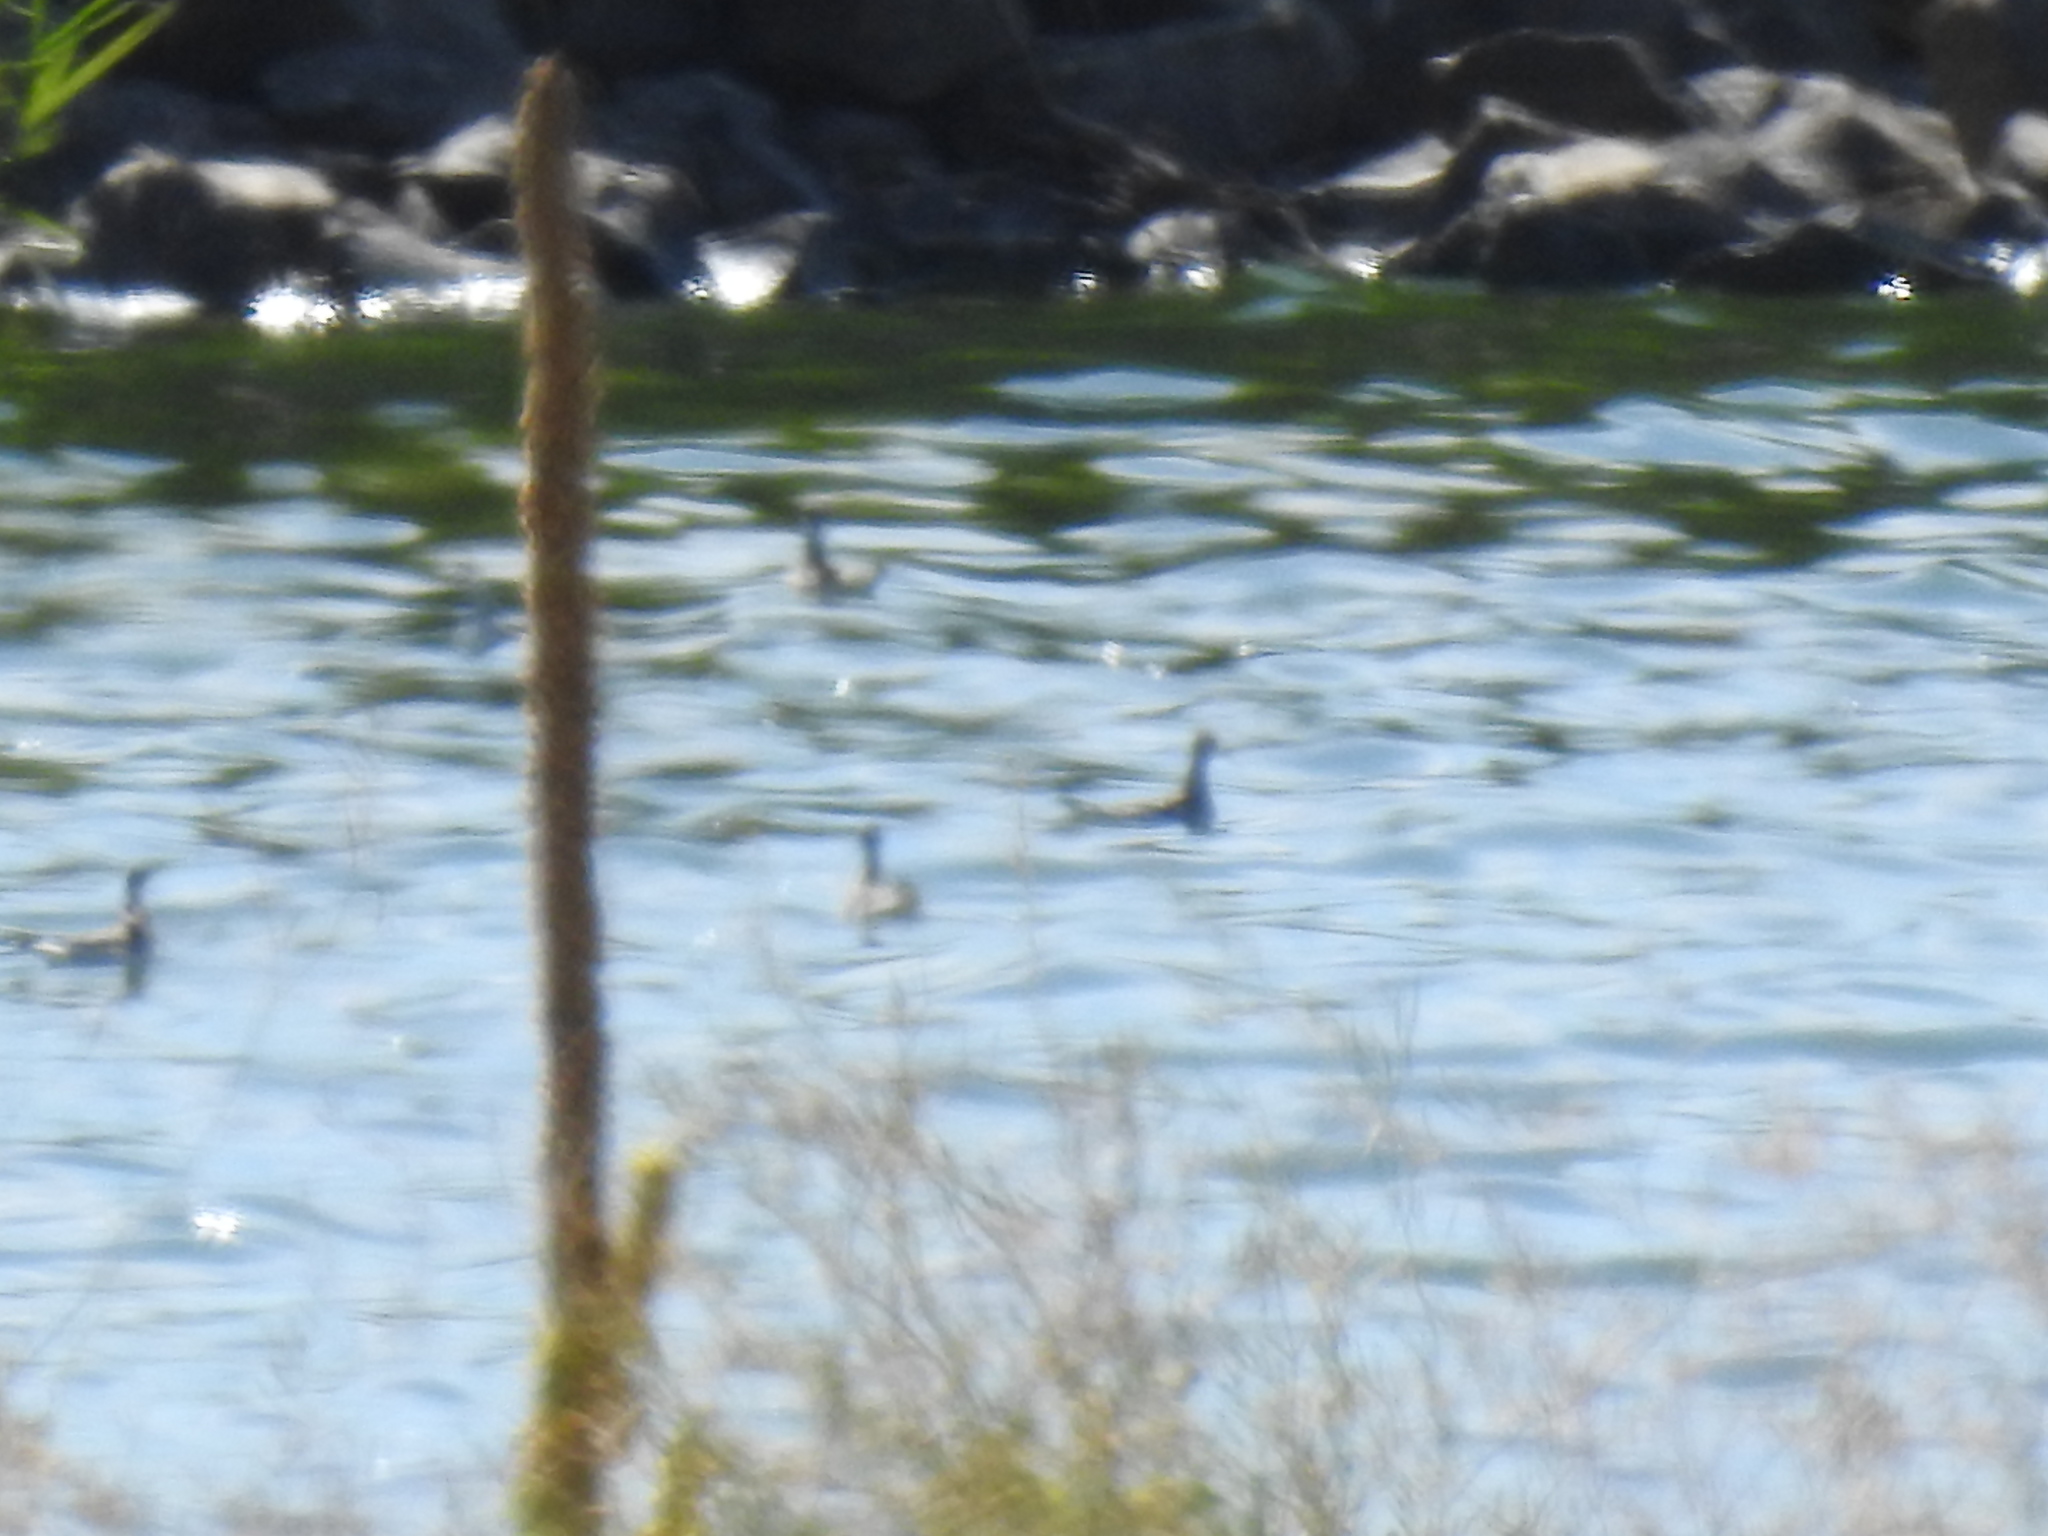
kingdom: Animalia
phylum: Chordata
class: Aves
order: Charadriiformes
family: Scolopacidae
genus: Phalaropus
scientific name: Phalaropus lobatus
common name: Red-necked phalarope
